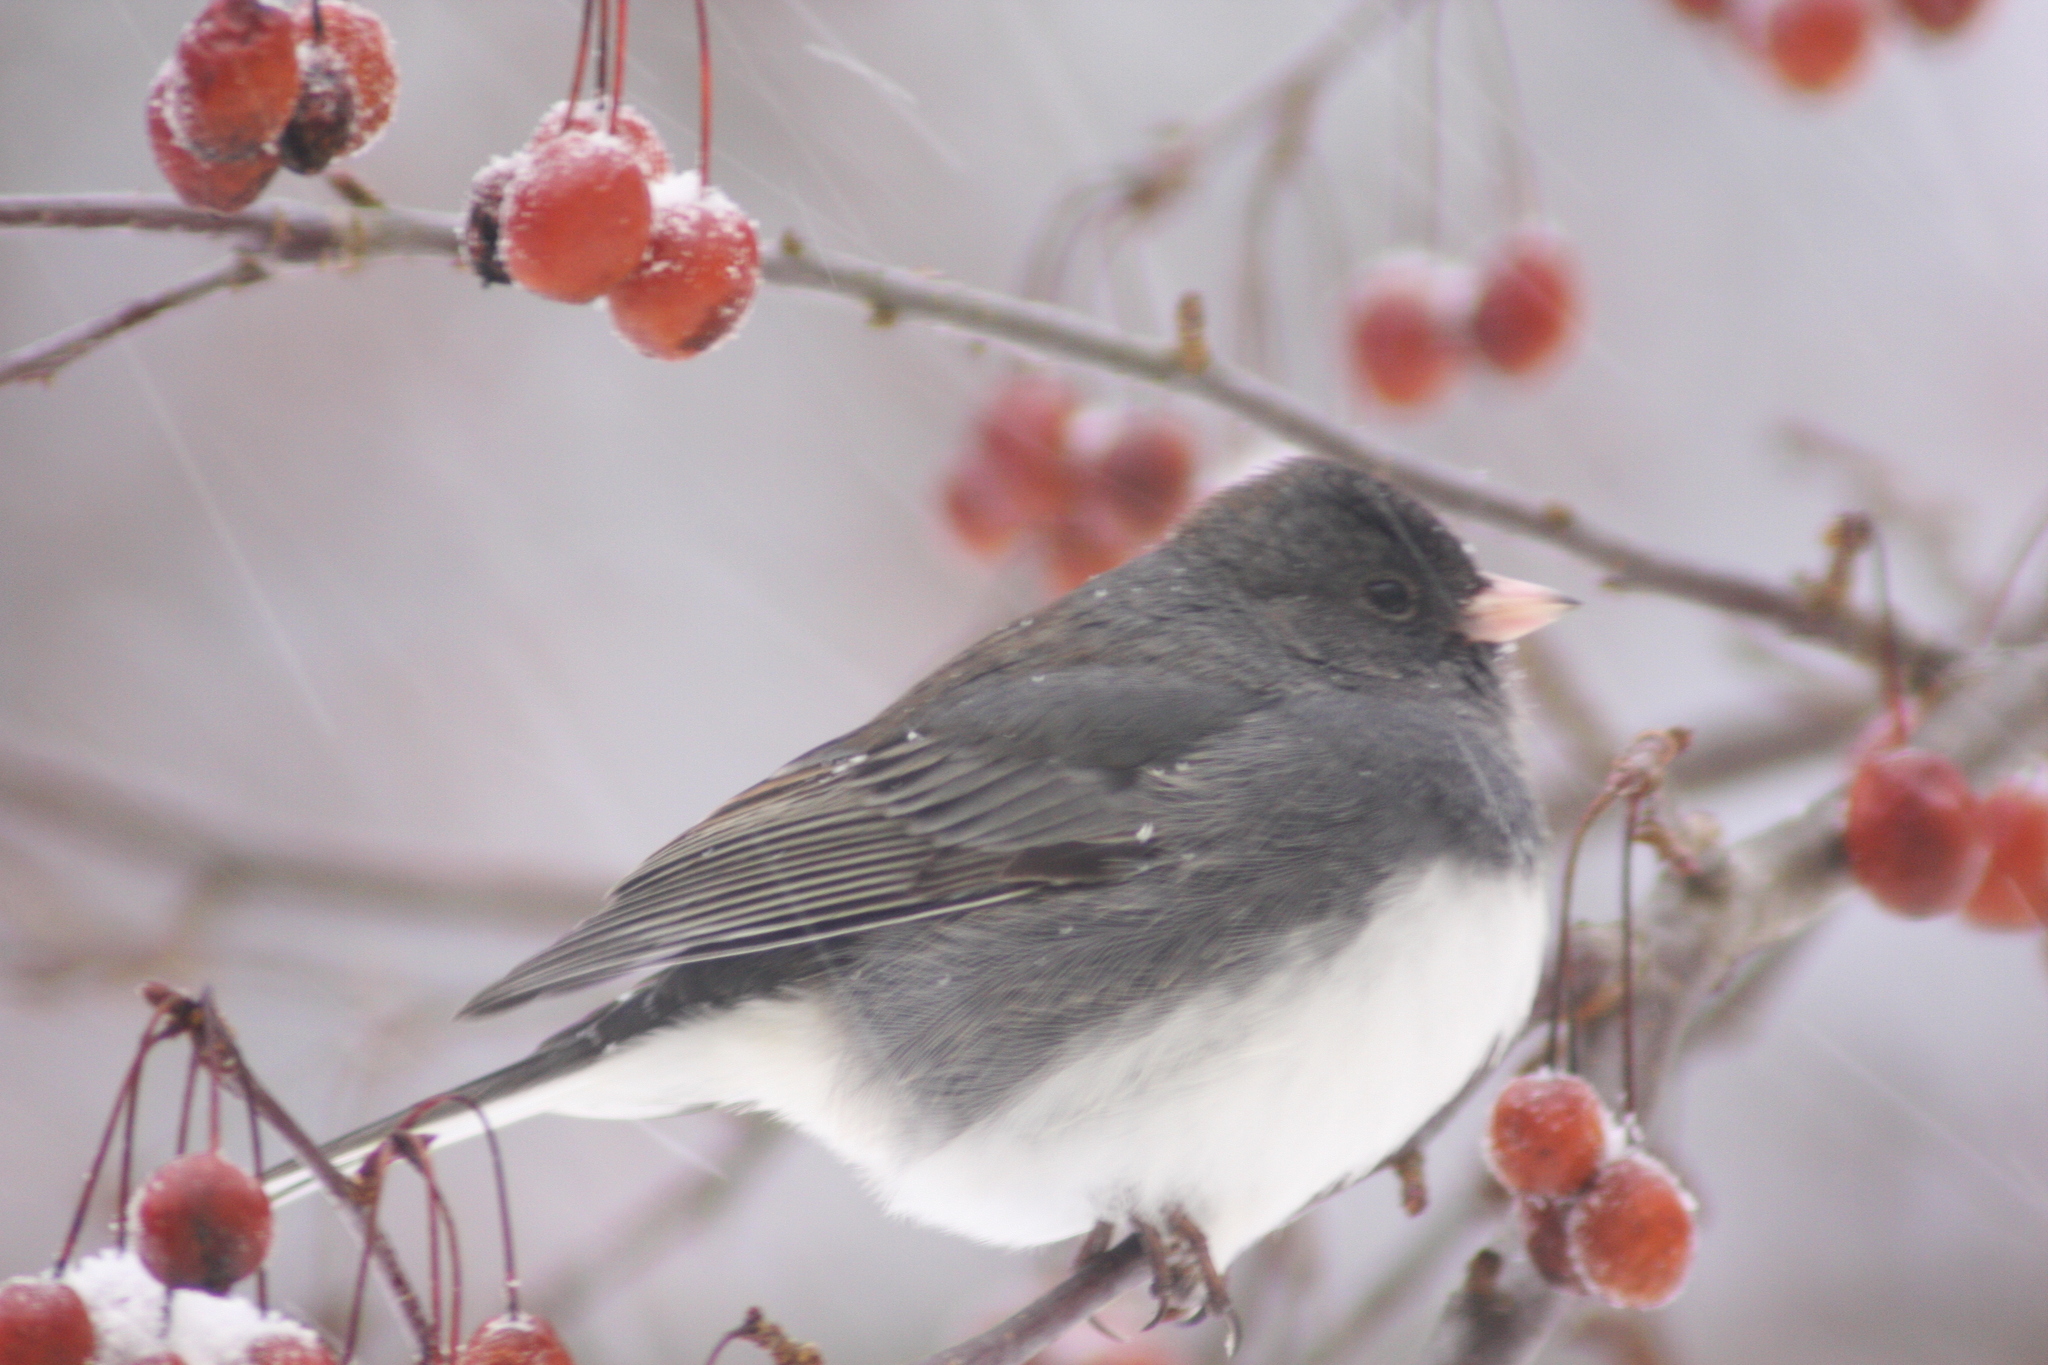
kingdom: Animalia
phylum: Chordata
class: Aves
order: Passeriformes
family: Passerellidae
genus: Junco
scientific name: Junco hyemalis
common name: Dark-eyed junco
